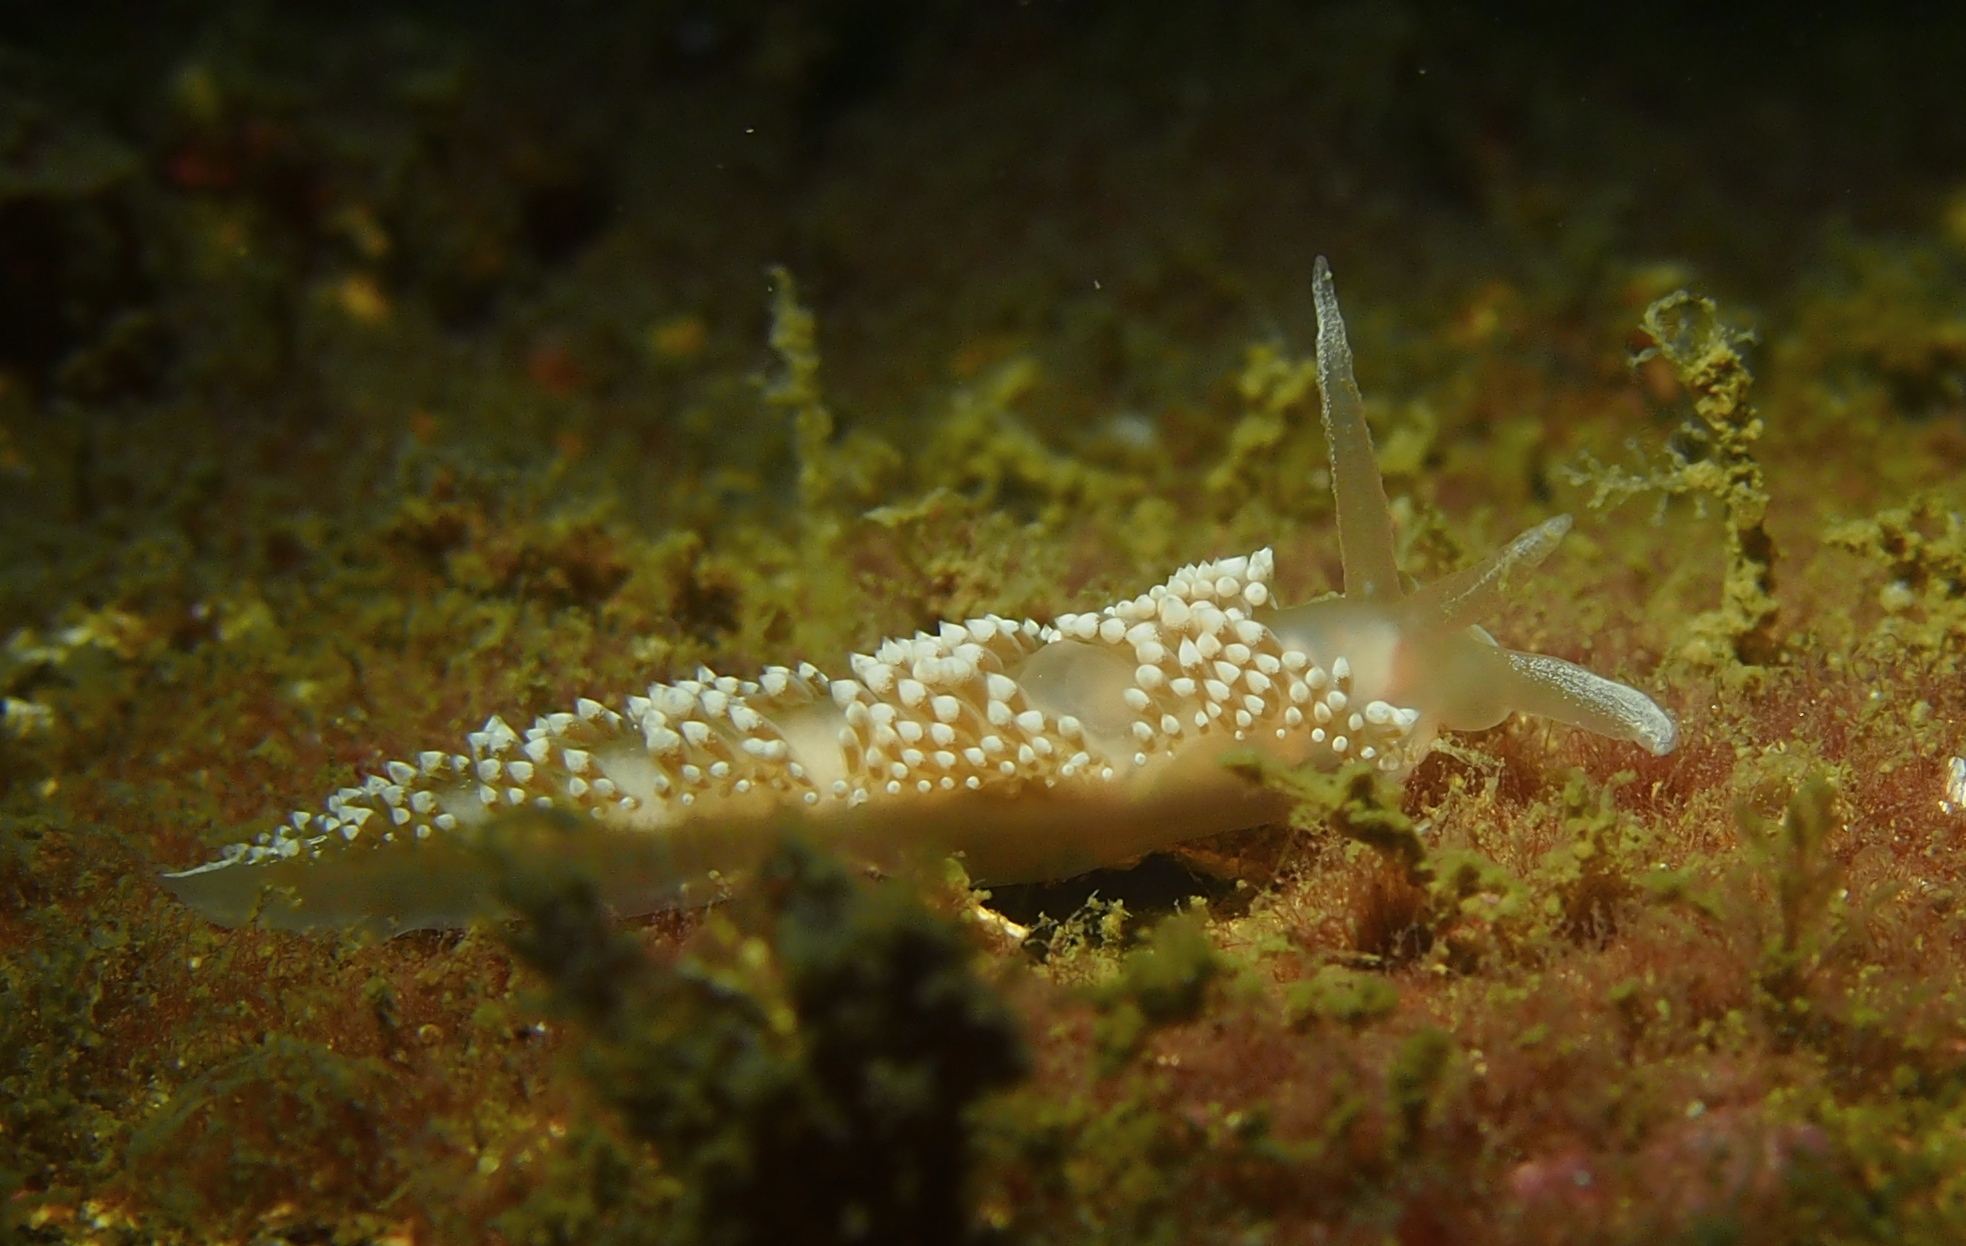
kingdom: Animalia
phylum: Mollusca
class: Gastropoda
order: Nudibranchia
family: Coryphellidae
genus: Coryphella
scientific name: Coryphella verrucosa
